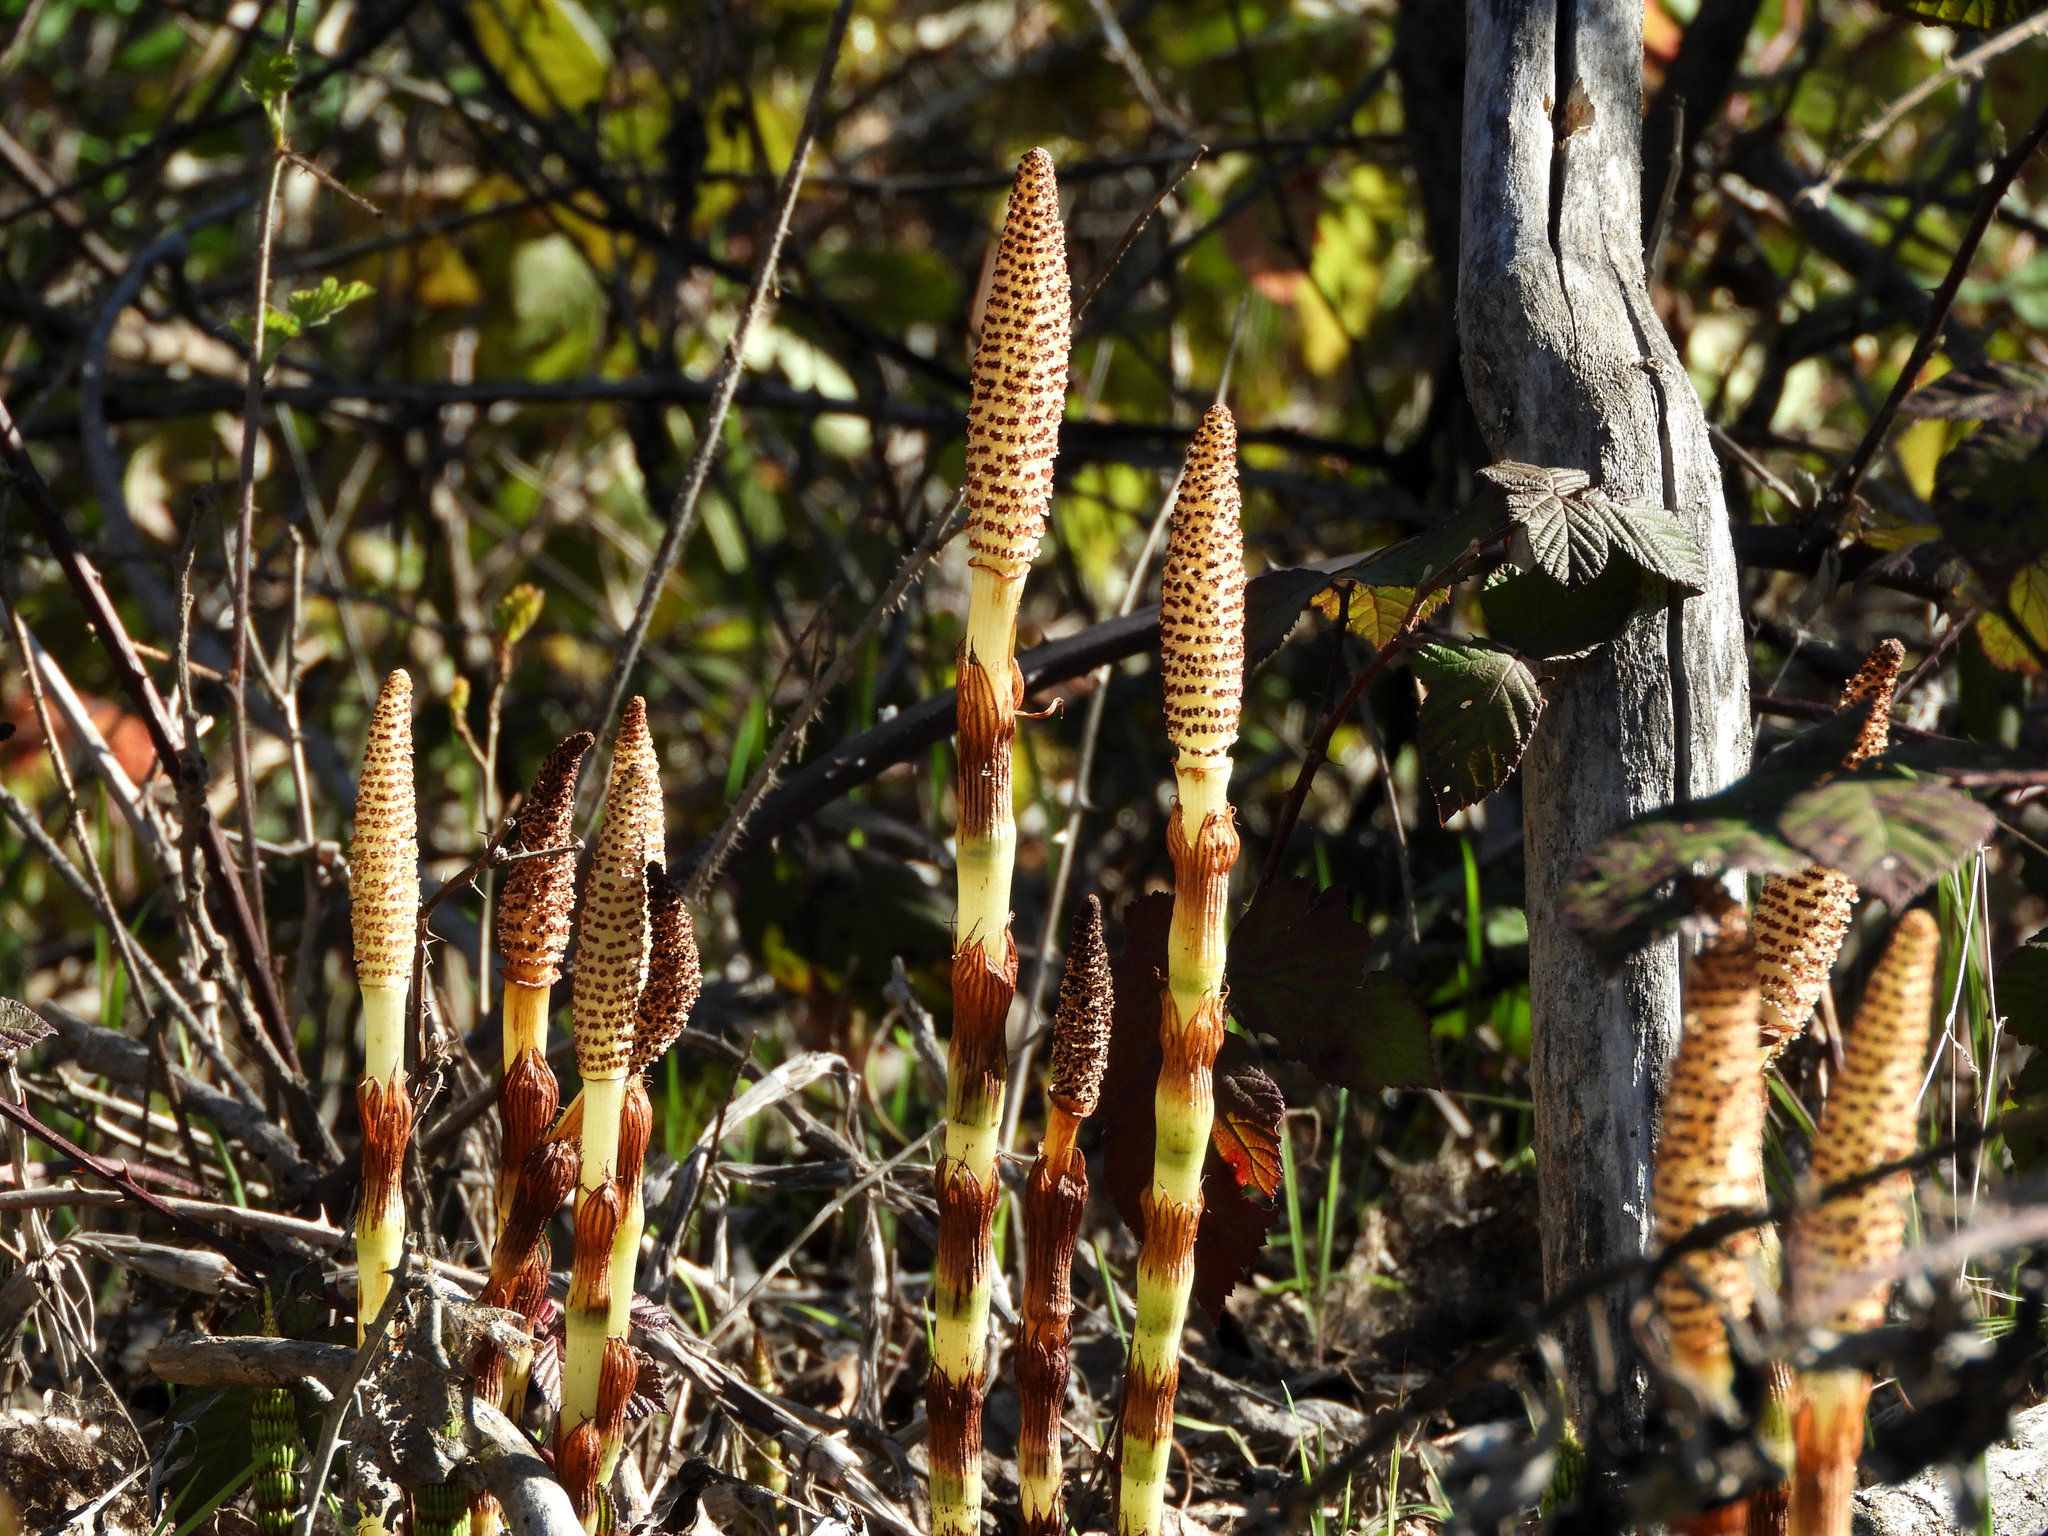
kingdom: Plantae
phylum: Tracheophyta
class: Polypodiopsida
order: Equisetales
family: Equisetaceae
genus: Equisetum
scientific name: Equisetum braunii
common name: Braun's horsetail
